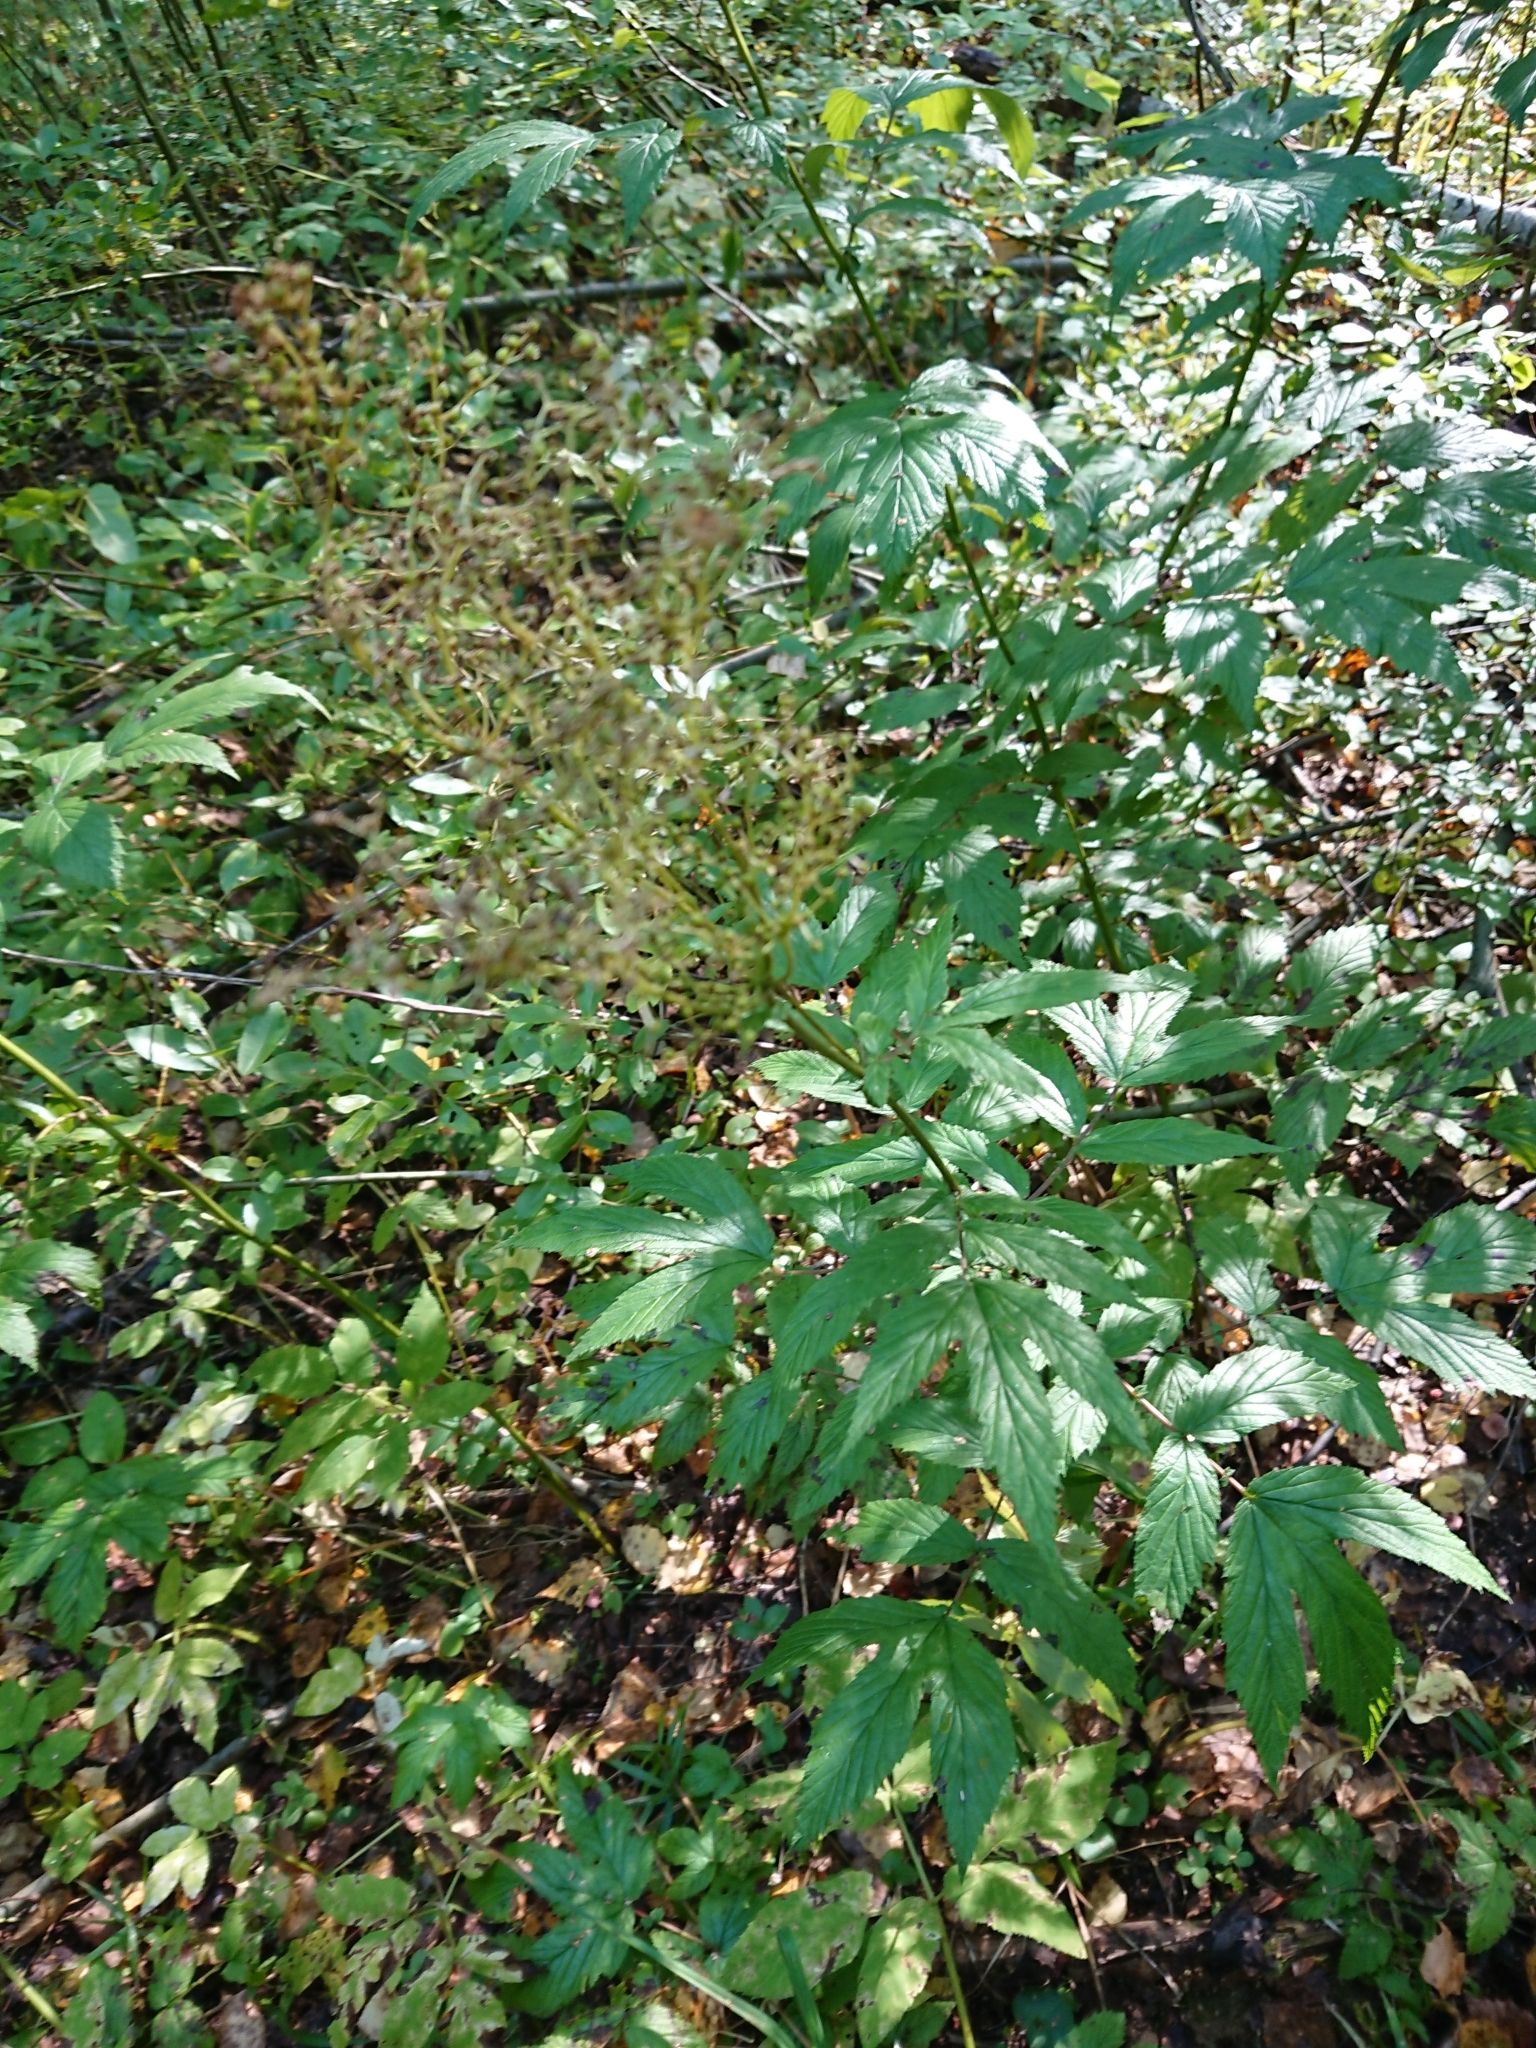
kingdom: Plantae
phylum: Tracheophyta
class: Magnoliopsida
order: Rosales
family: Rosaceae
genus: Filipendula
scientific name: Filipendula ulmaria
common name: Meadowsweet
